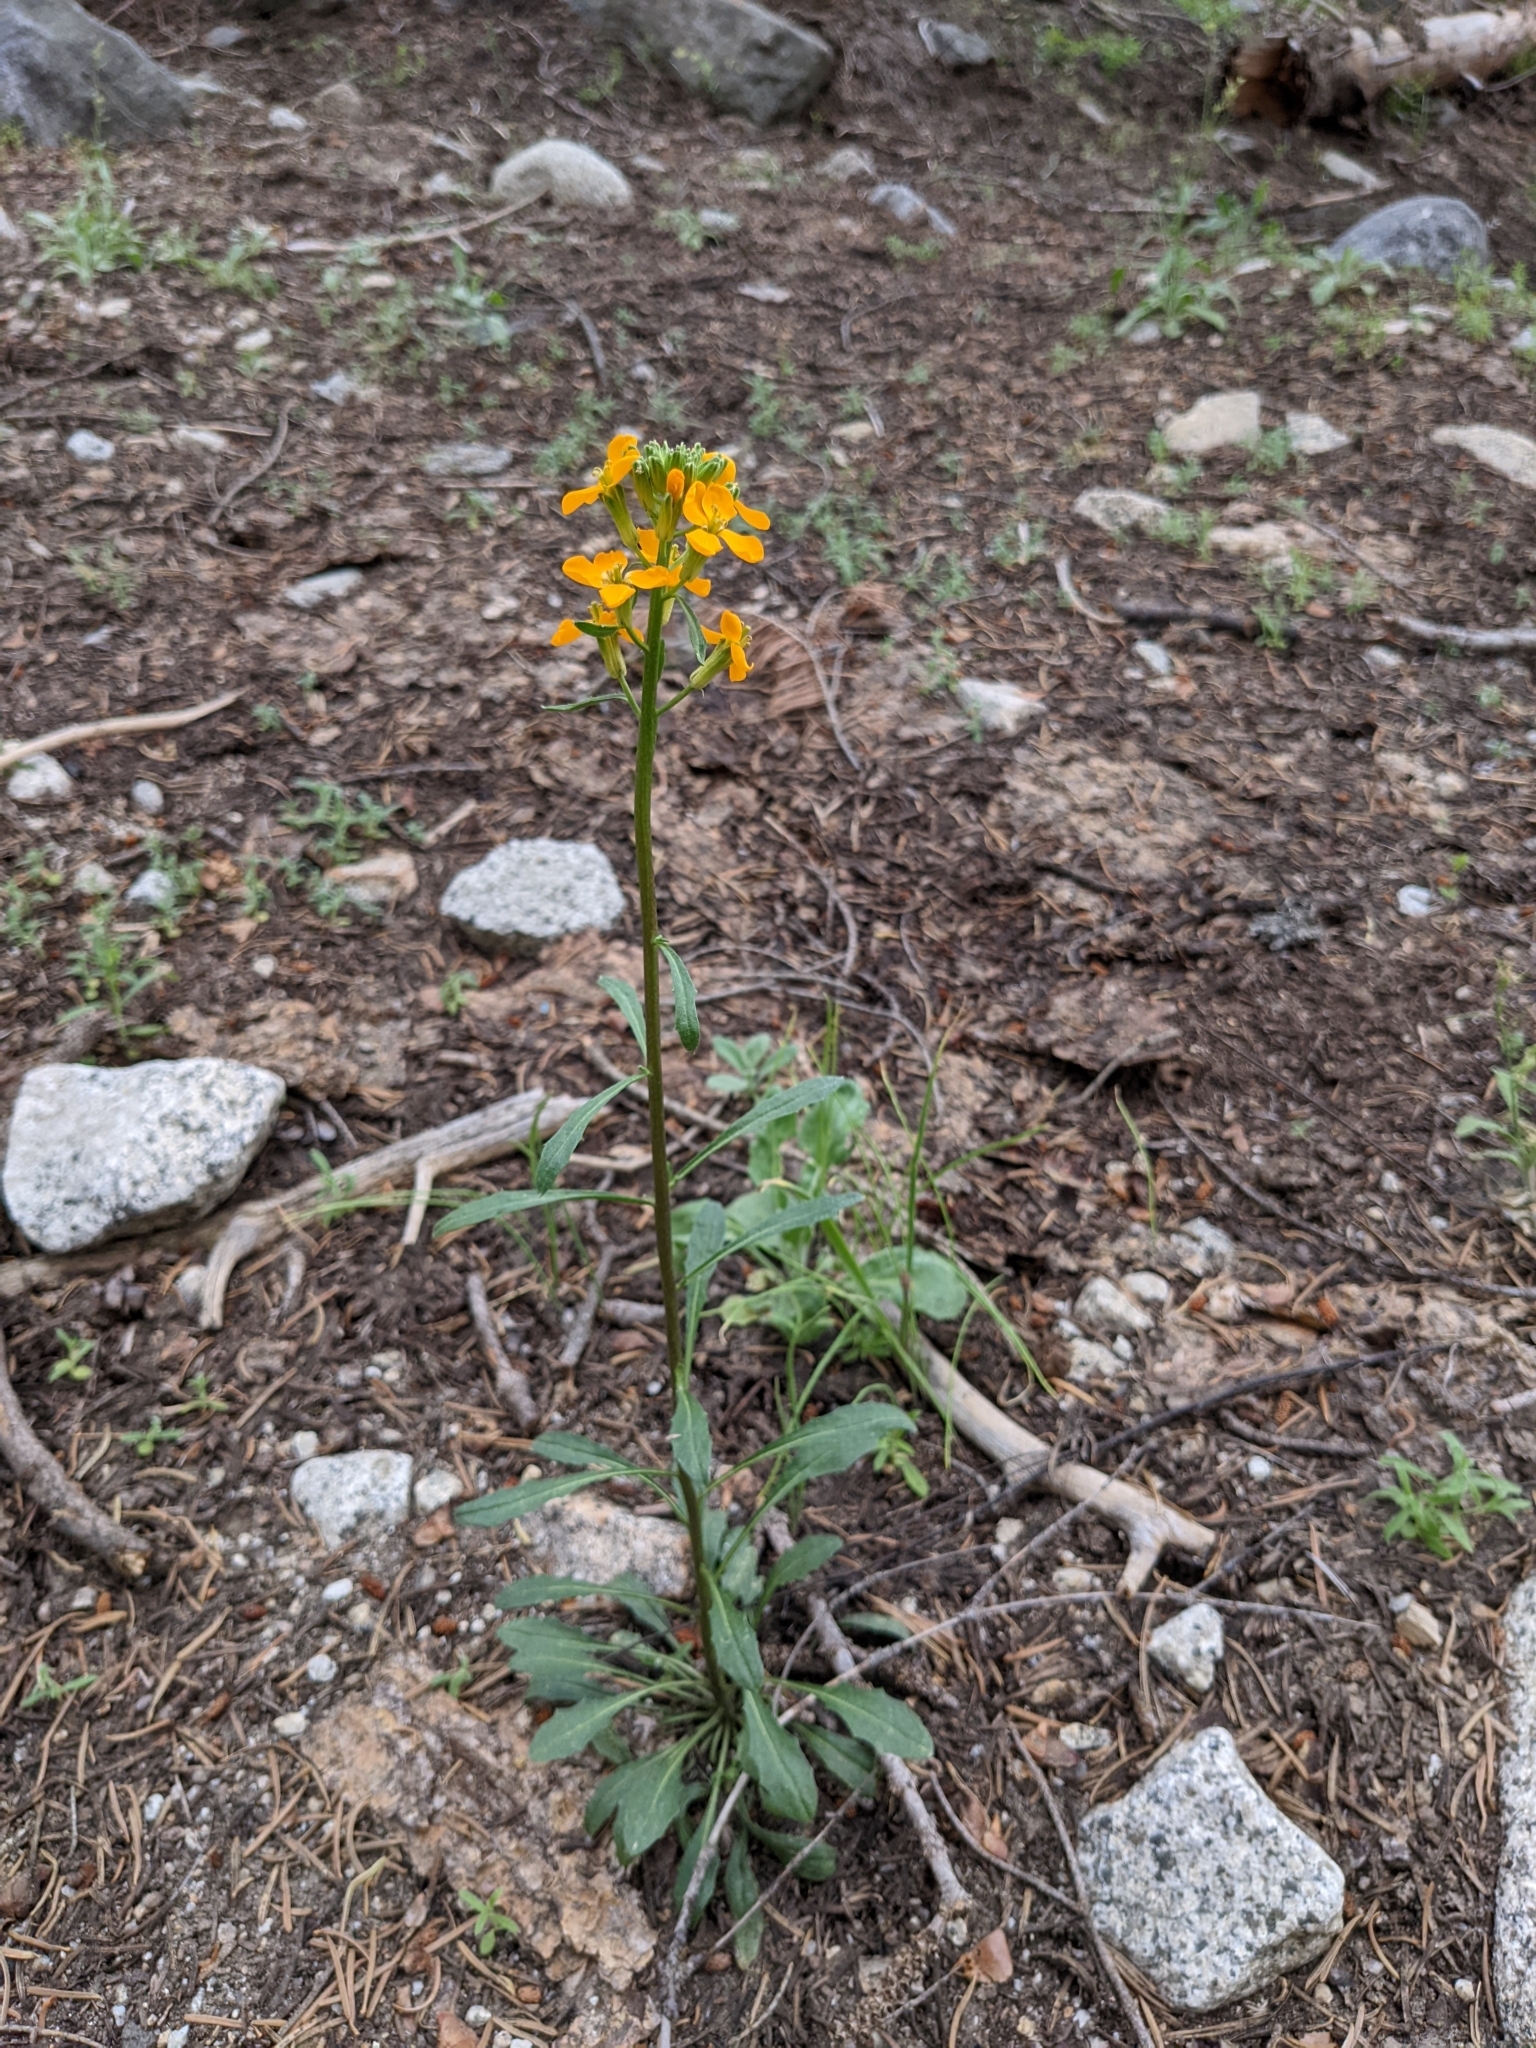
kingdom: Plantae
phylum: Tracheophyta
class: Magnoliopsida
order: Brassicales
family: Brassicaceae
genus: Erysimum
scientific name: Erysimum capitatum
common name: Western wallflower
